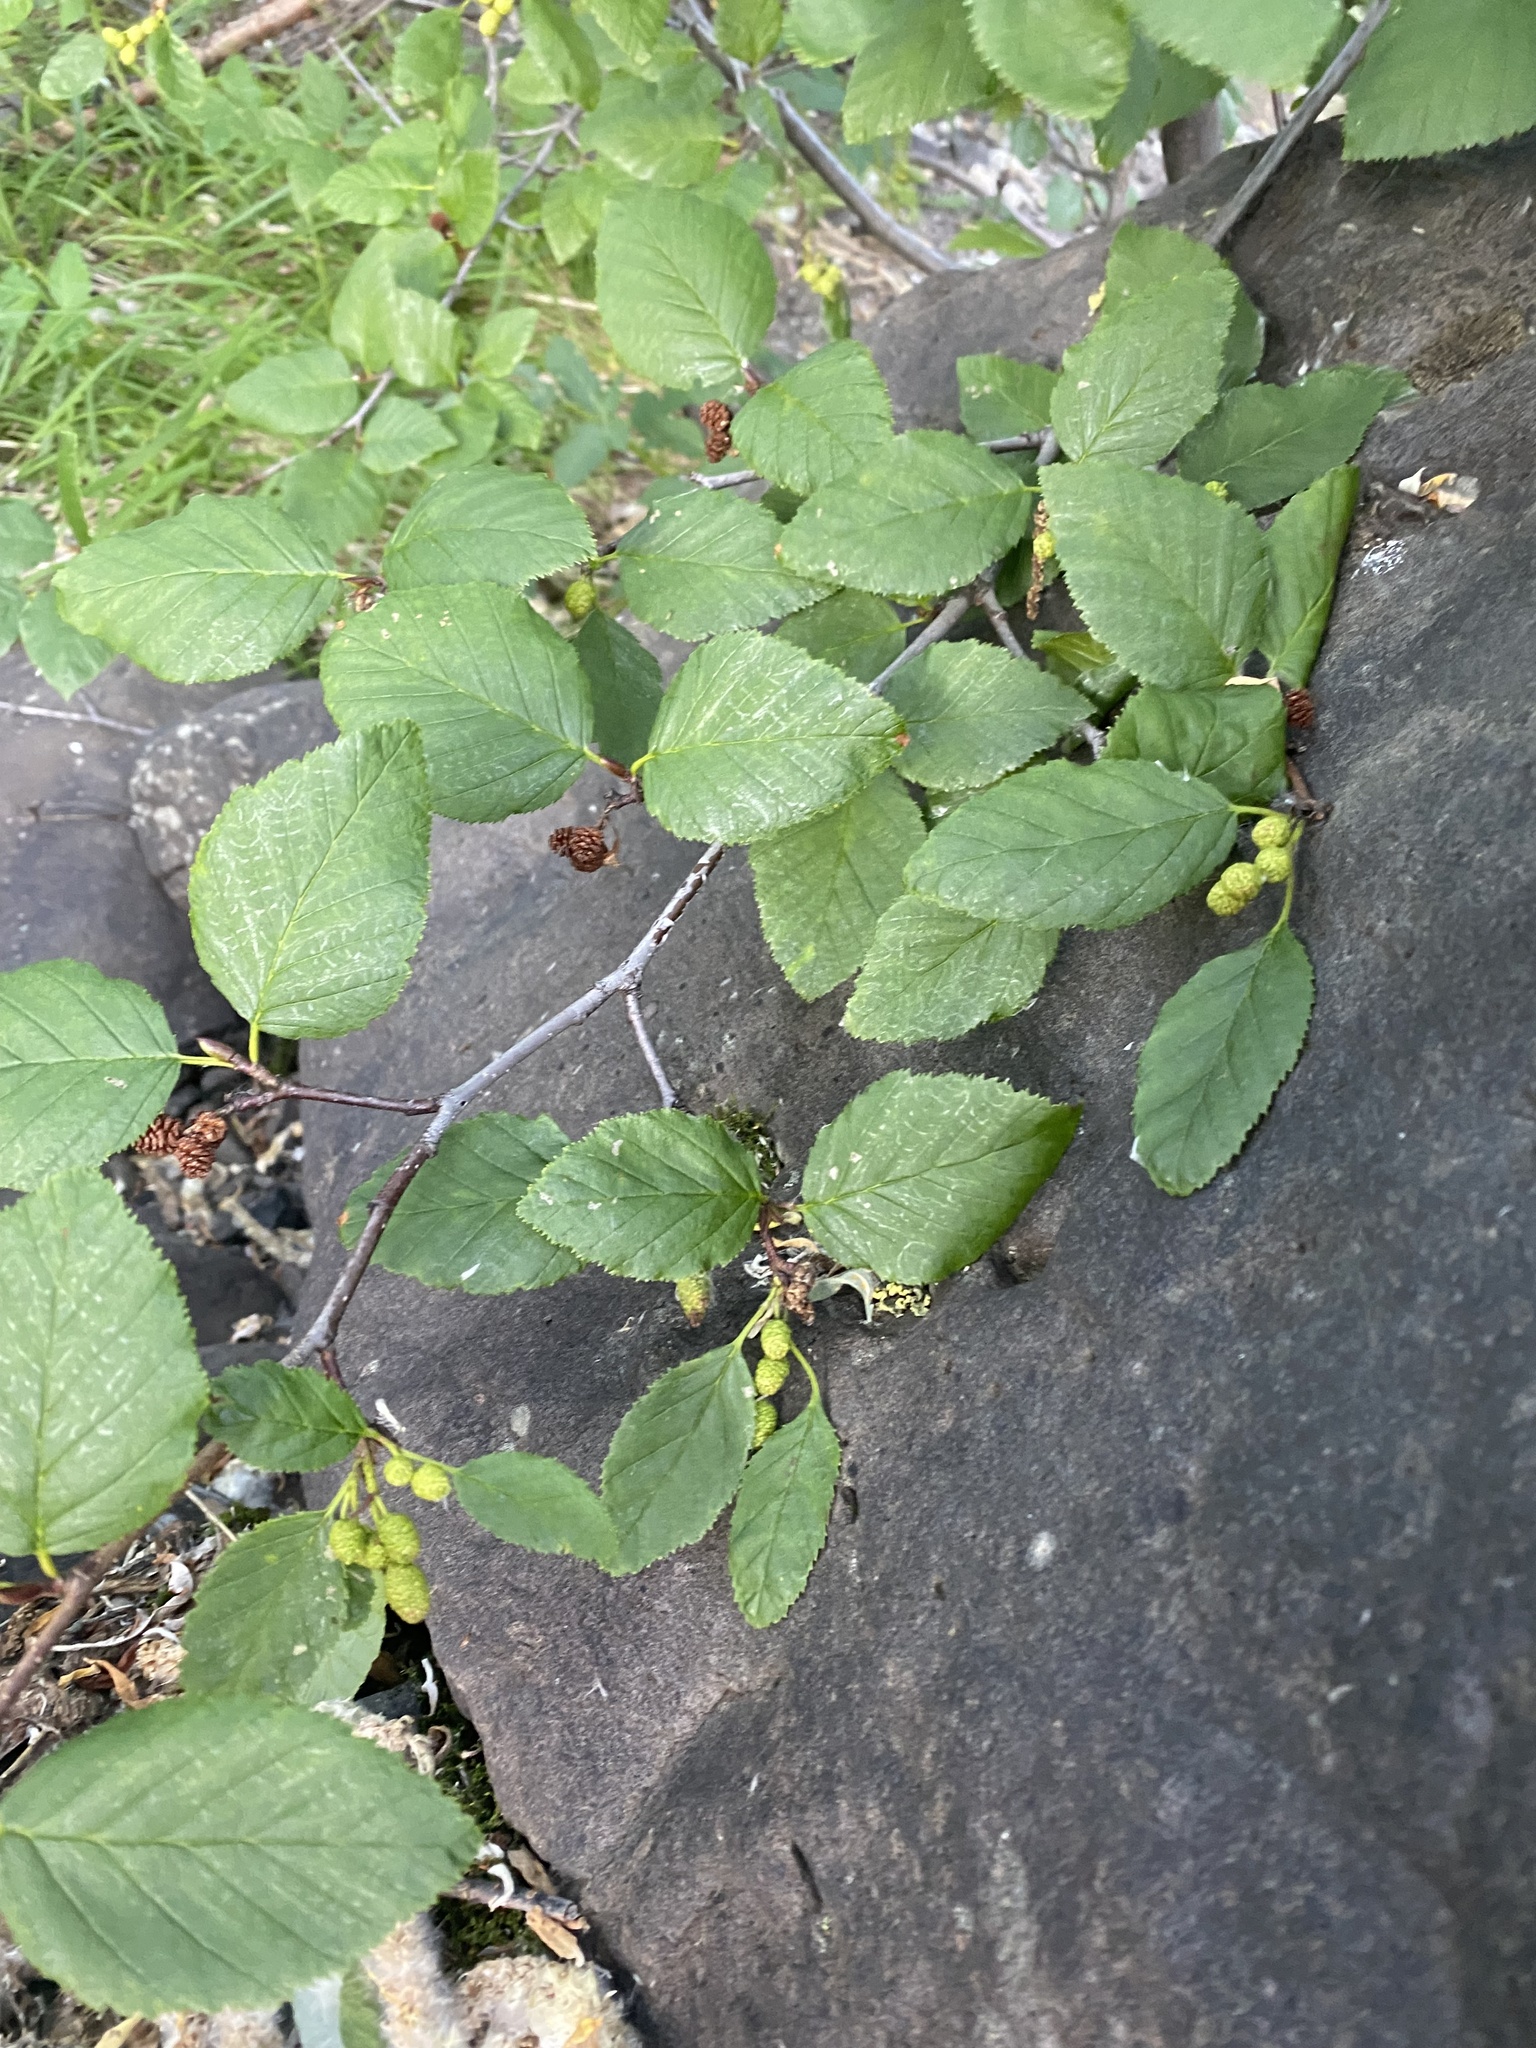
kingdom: Plantae
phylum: Tracheophyta
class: Magnoliopsida
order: Fagales
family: Betulaceae
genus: Alnus
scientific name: Alnus alnobetula
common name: Green alder
